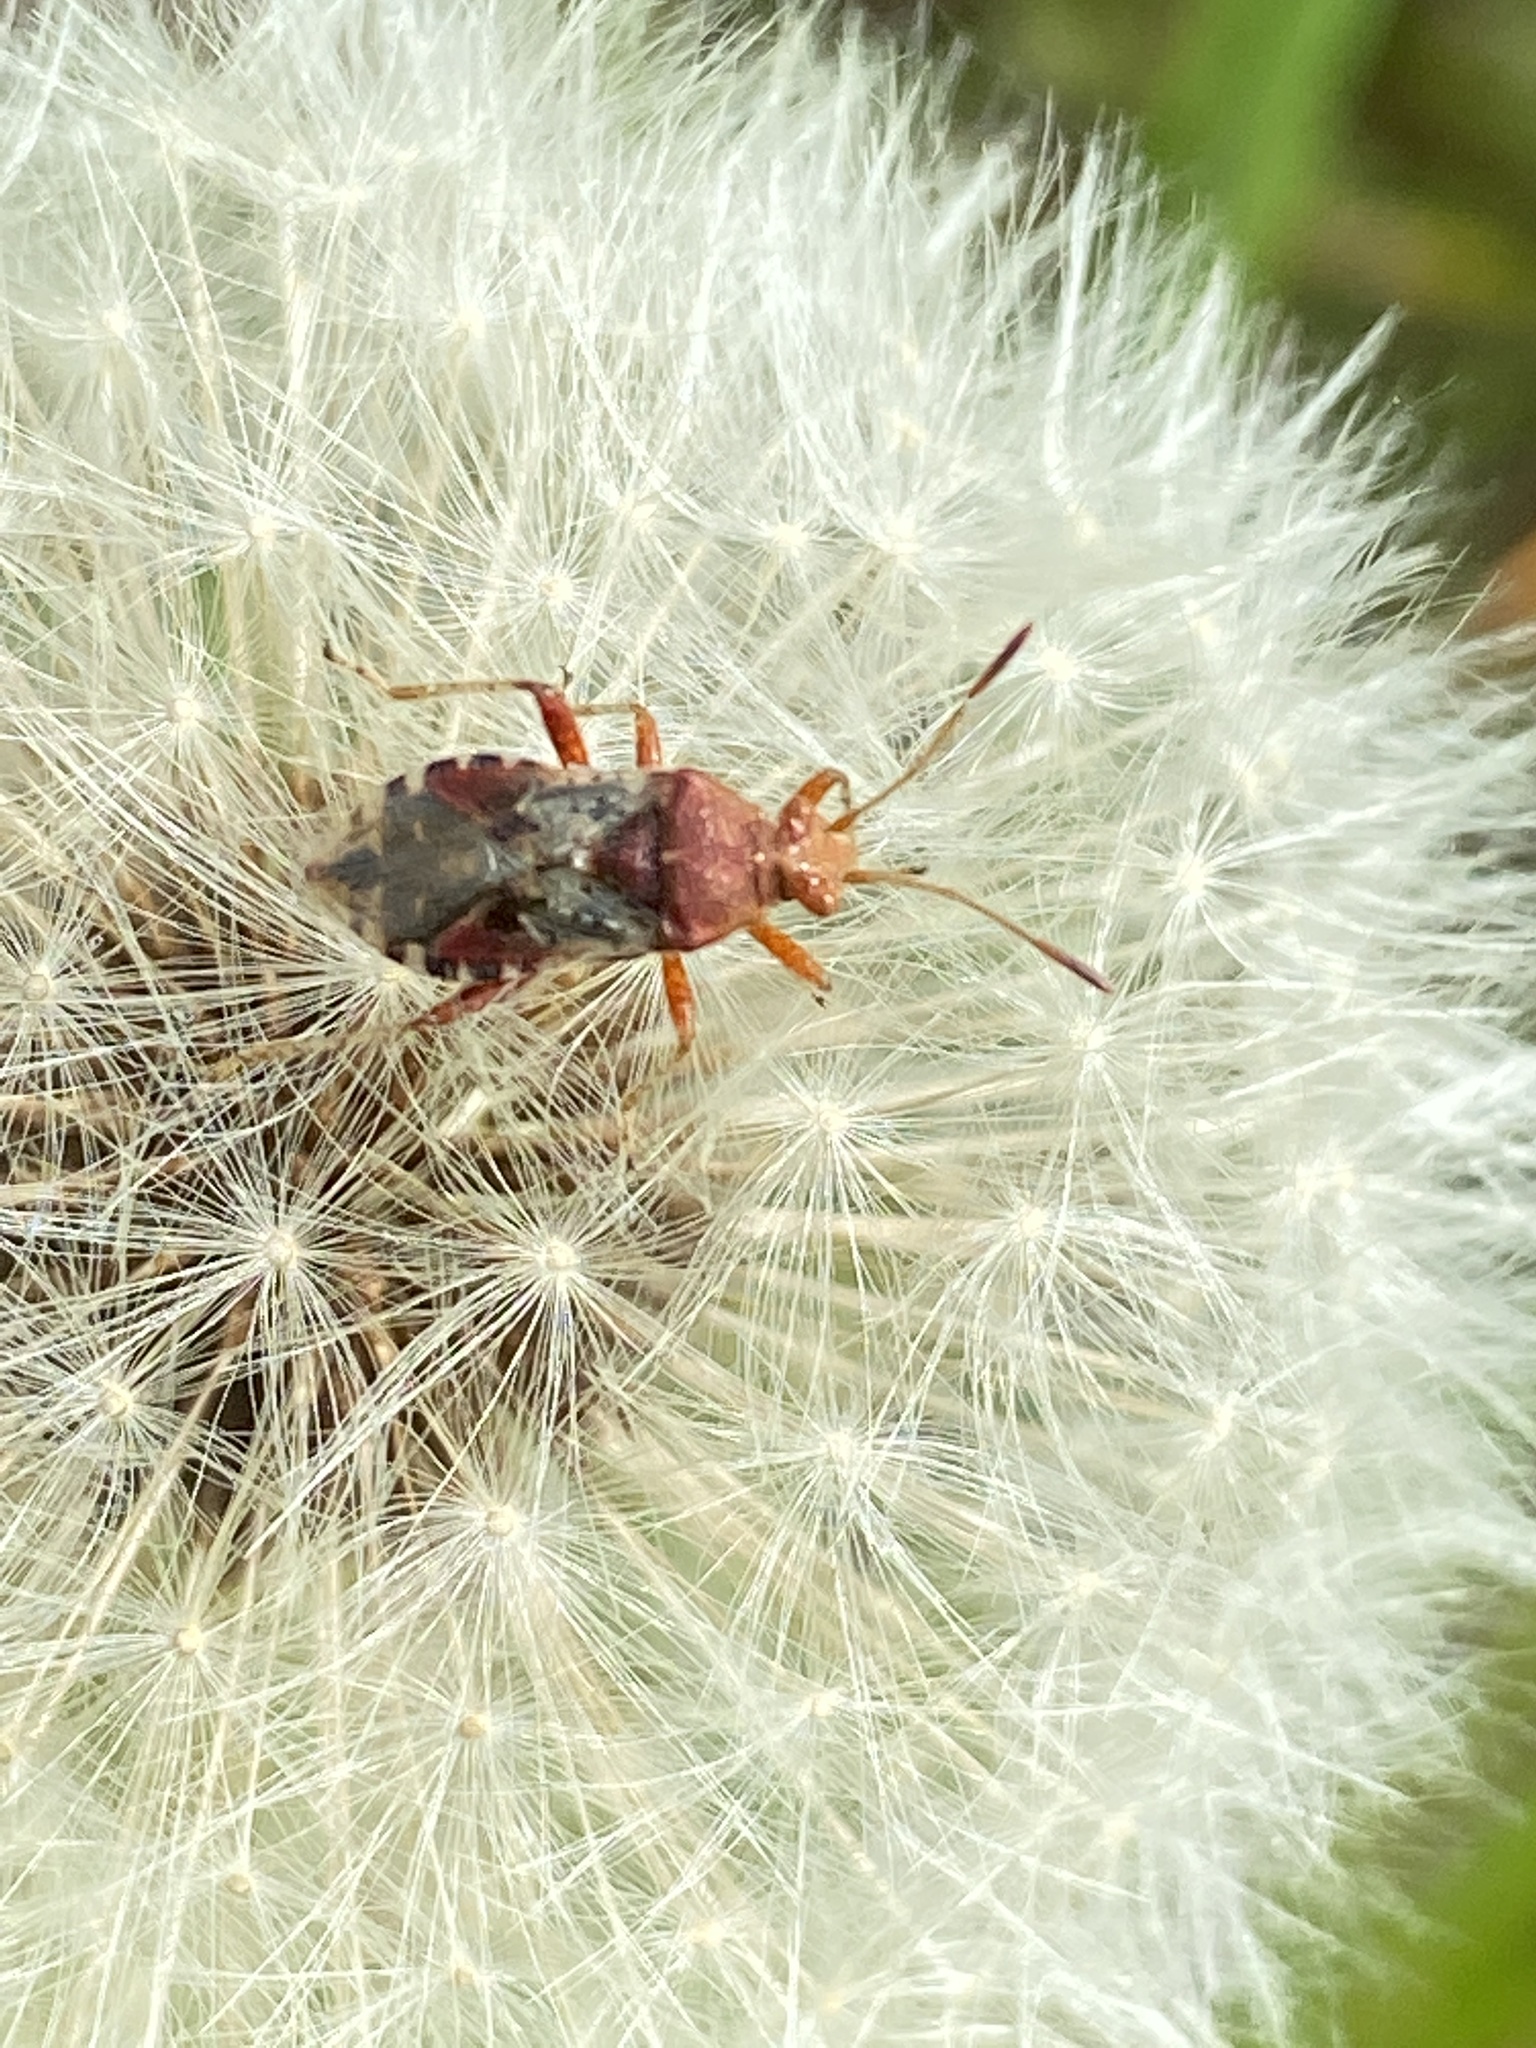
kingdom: Animalia
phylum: Arthropoda
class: Insecta
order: Hemiptera
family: Rhopalidae
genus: Rhopalus
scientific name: Rhopalus subrufus
